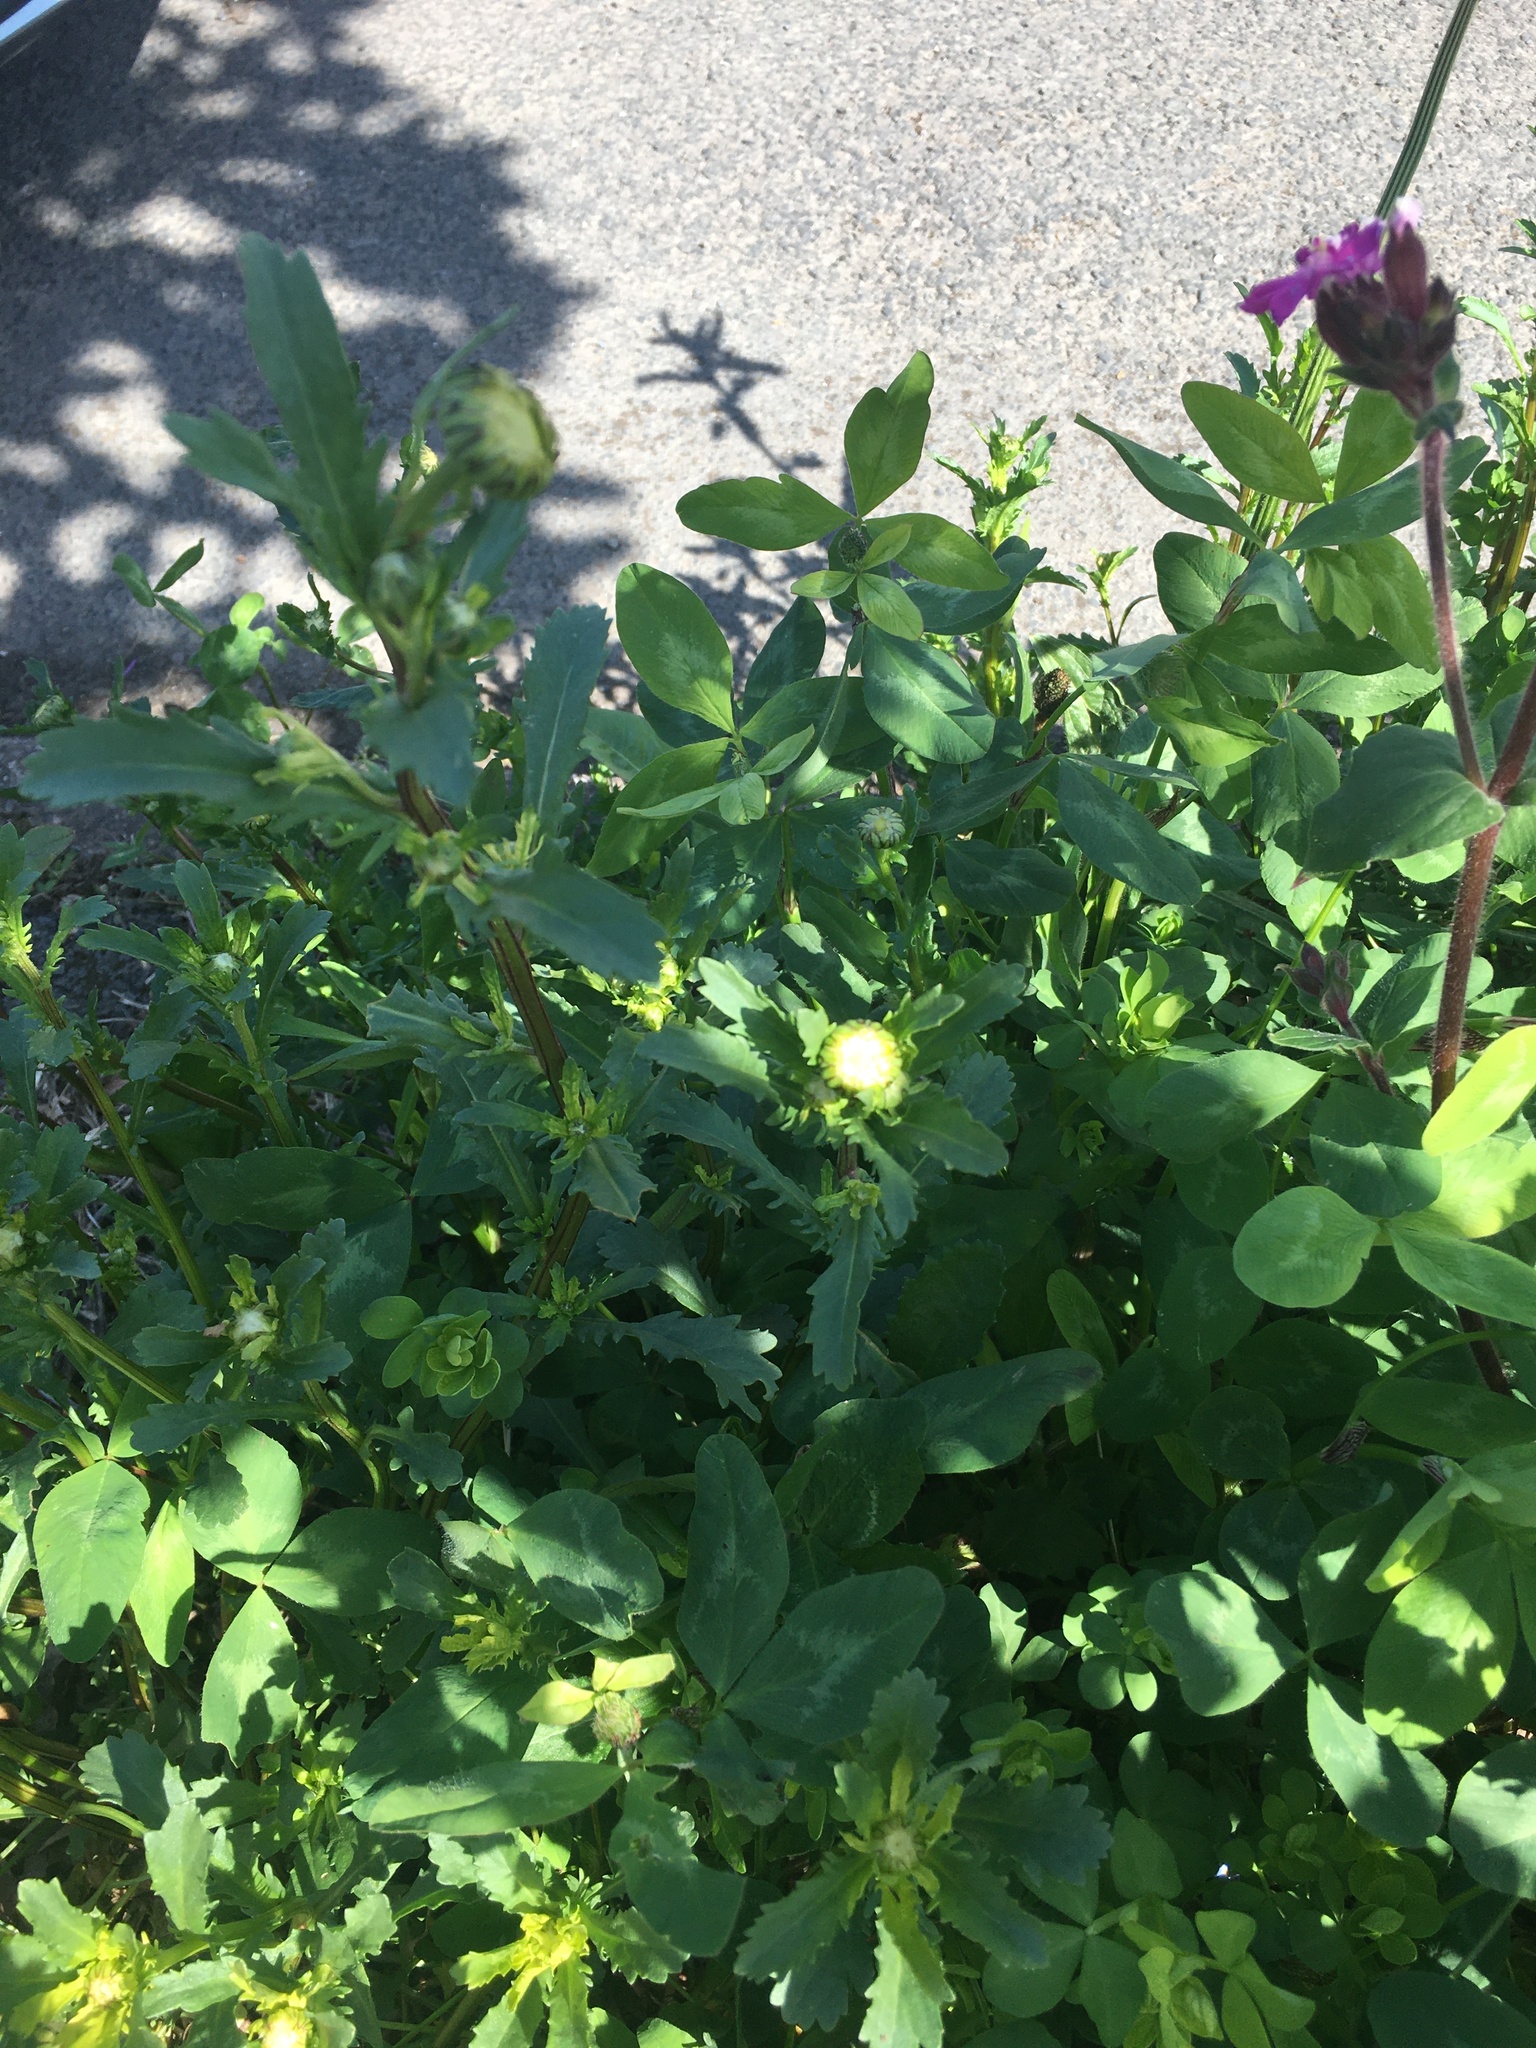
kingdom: Plantae
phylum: Tracheophyta
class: Magnoliopsida
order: Asterales
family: Asteraceae
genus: Leucanthemum
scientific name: Leucanthemum vulgare
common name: Oxeye daisy
